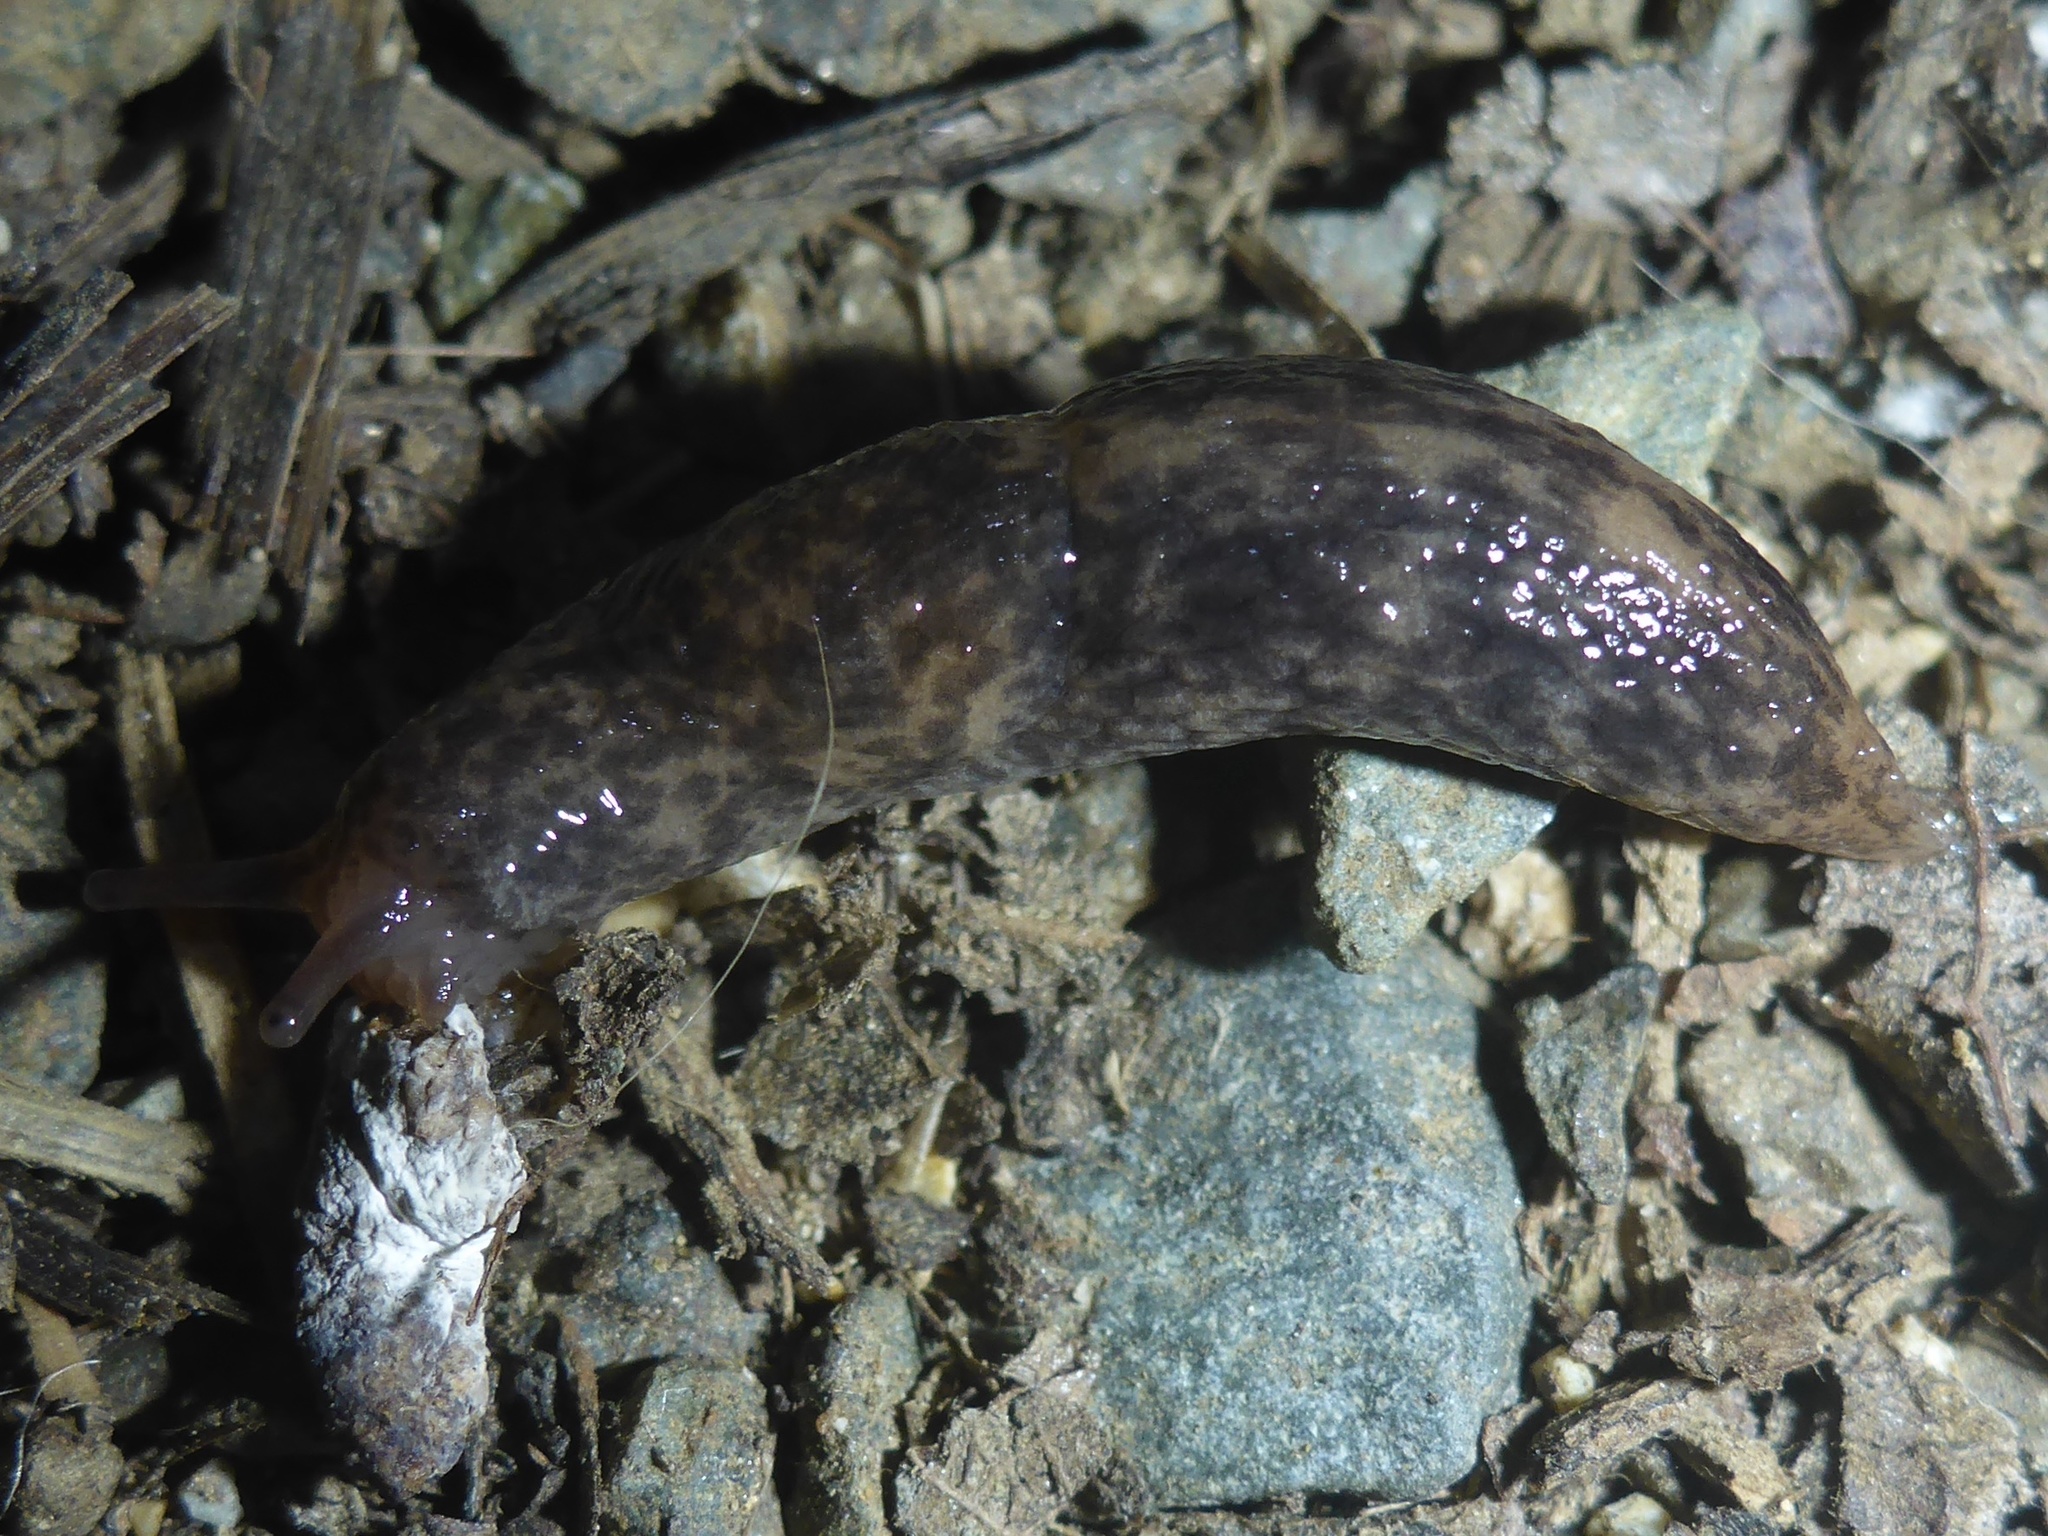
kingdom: Animalia
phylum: Mollusca
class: Gastropoda
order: Stylommatophora
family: Agriolimacidae
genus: Deroceras
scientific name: Deroceras reticulatum
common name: Gray field slug
